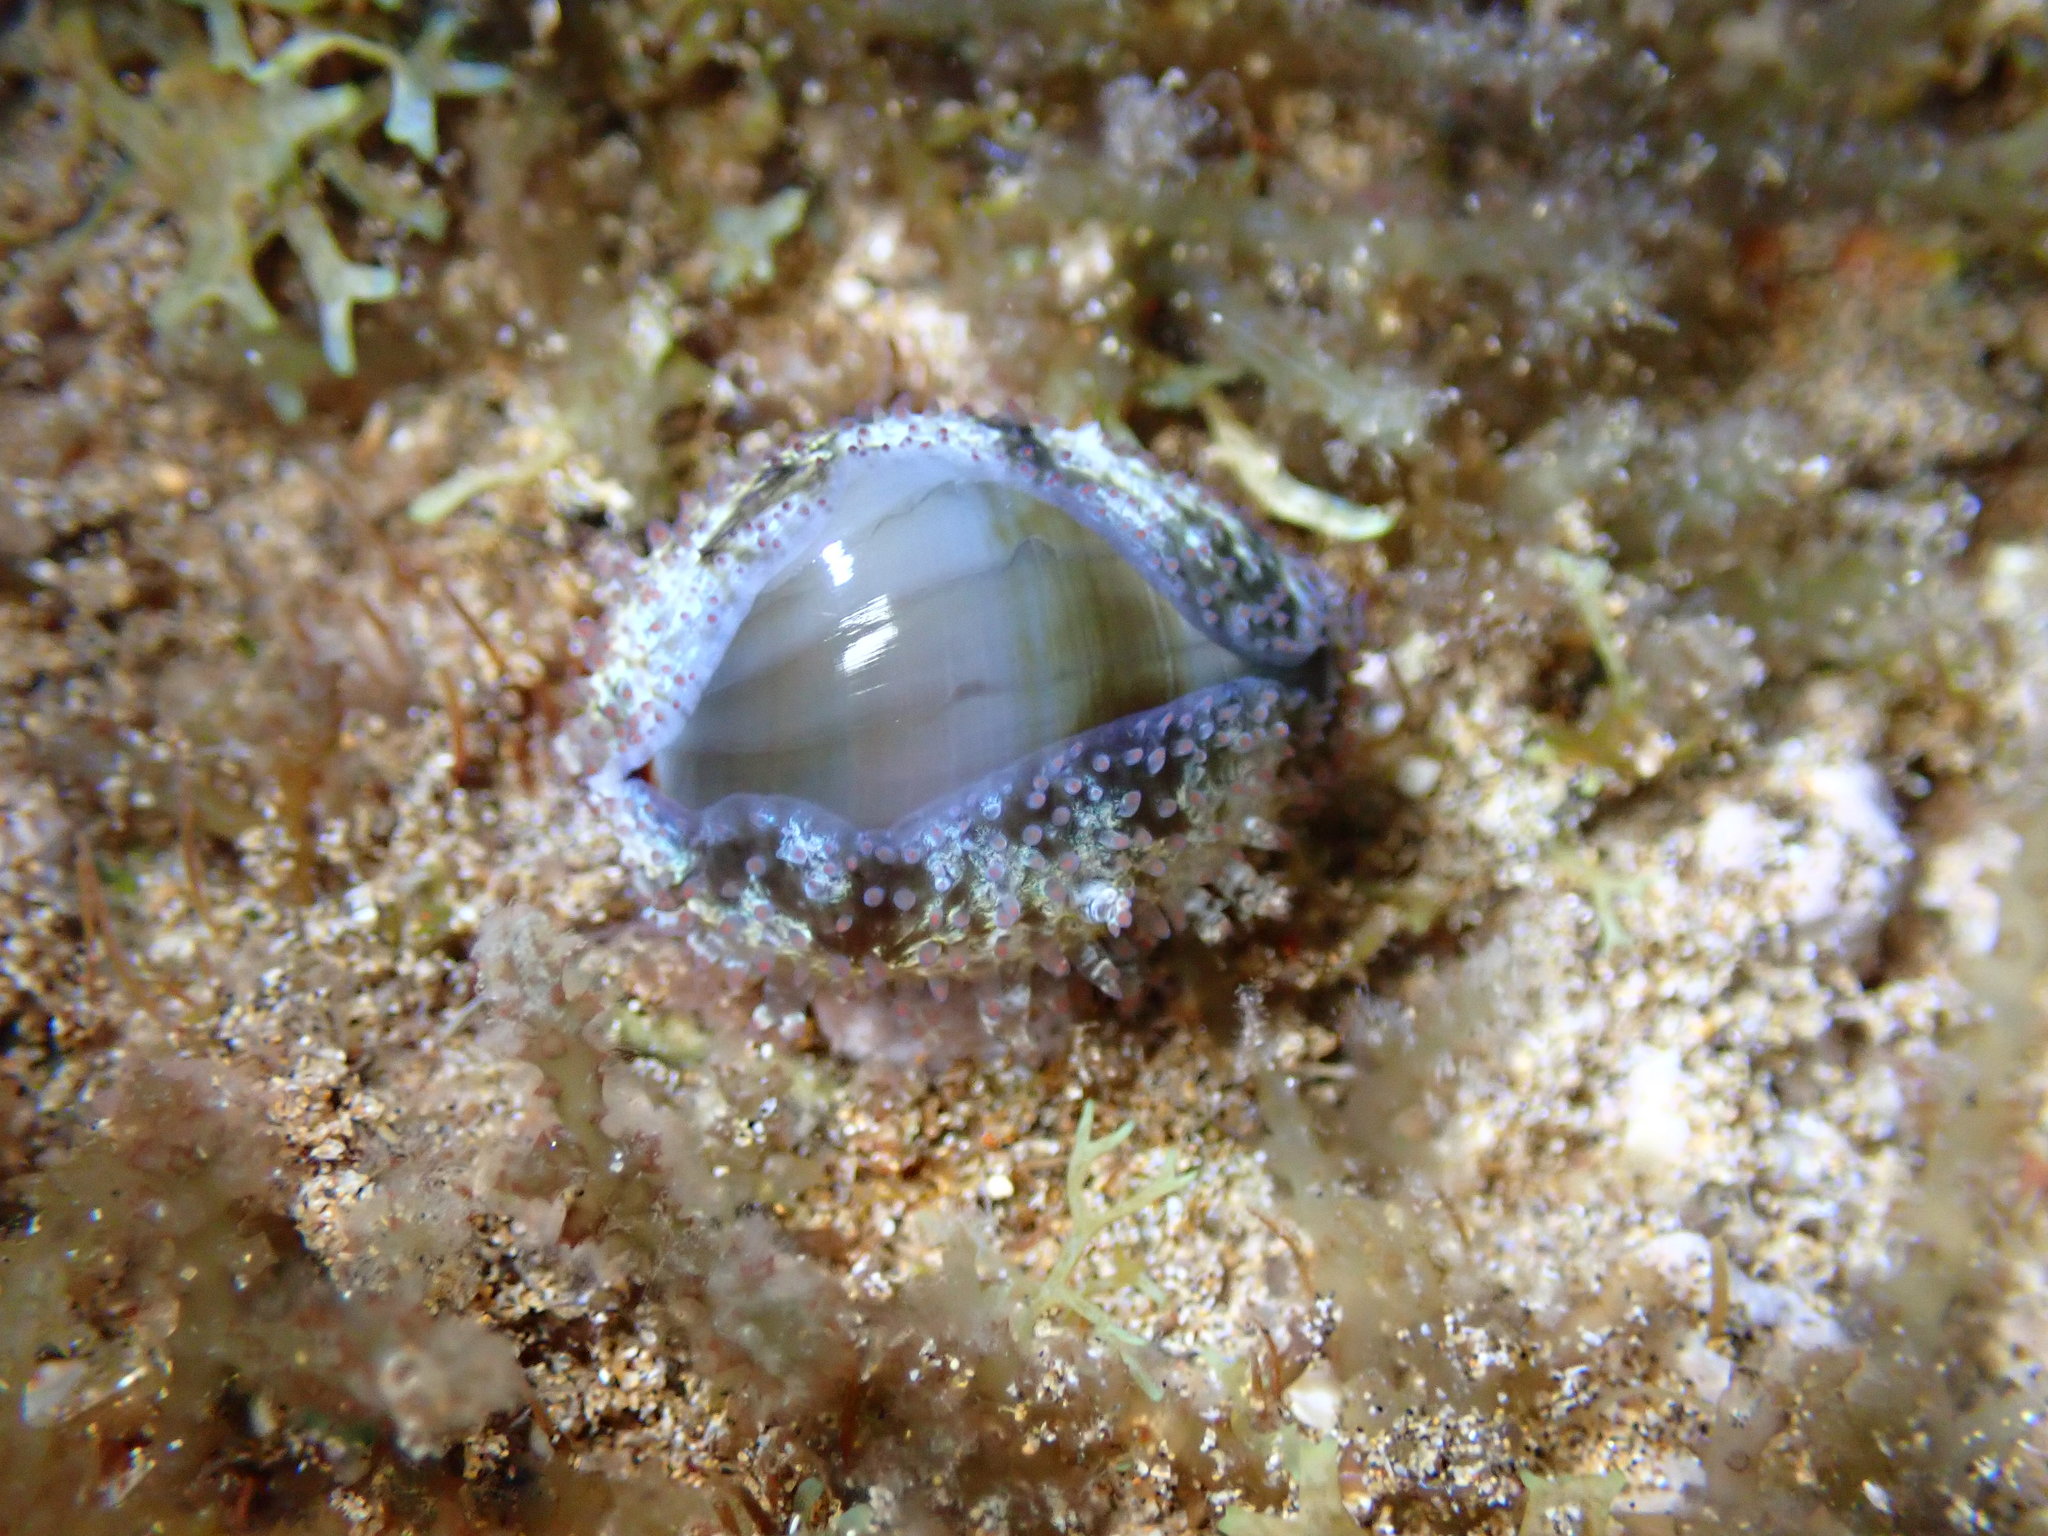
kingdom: Animalia
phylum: Mollusca
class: Gastropoda
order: Littorinimorpha
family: Cypraeidae
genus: Monetaria
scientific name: Monetaria caputophidii
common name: Snake's head cowry
